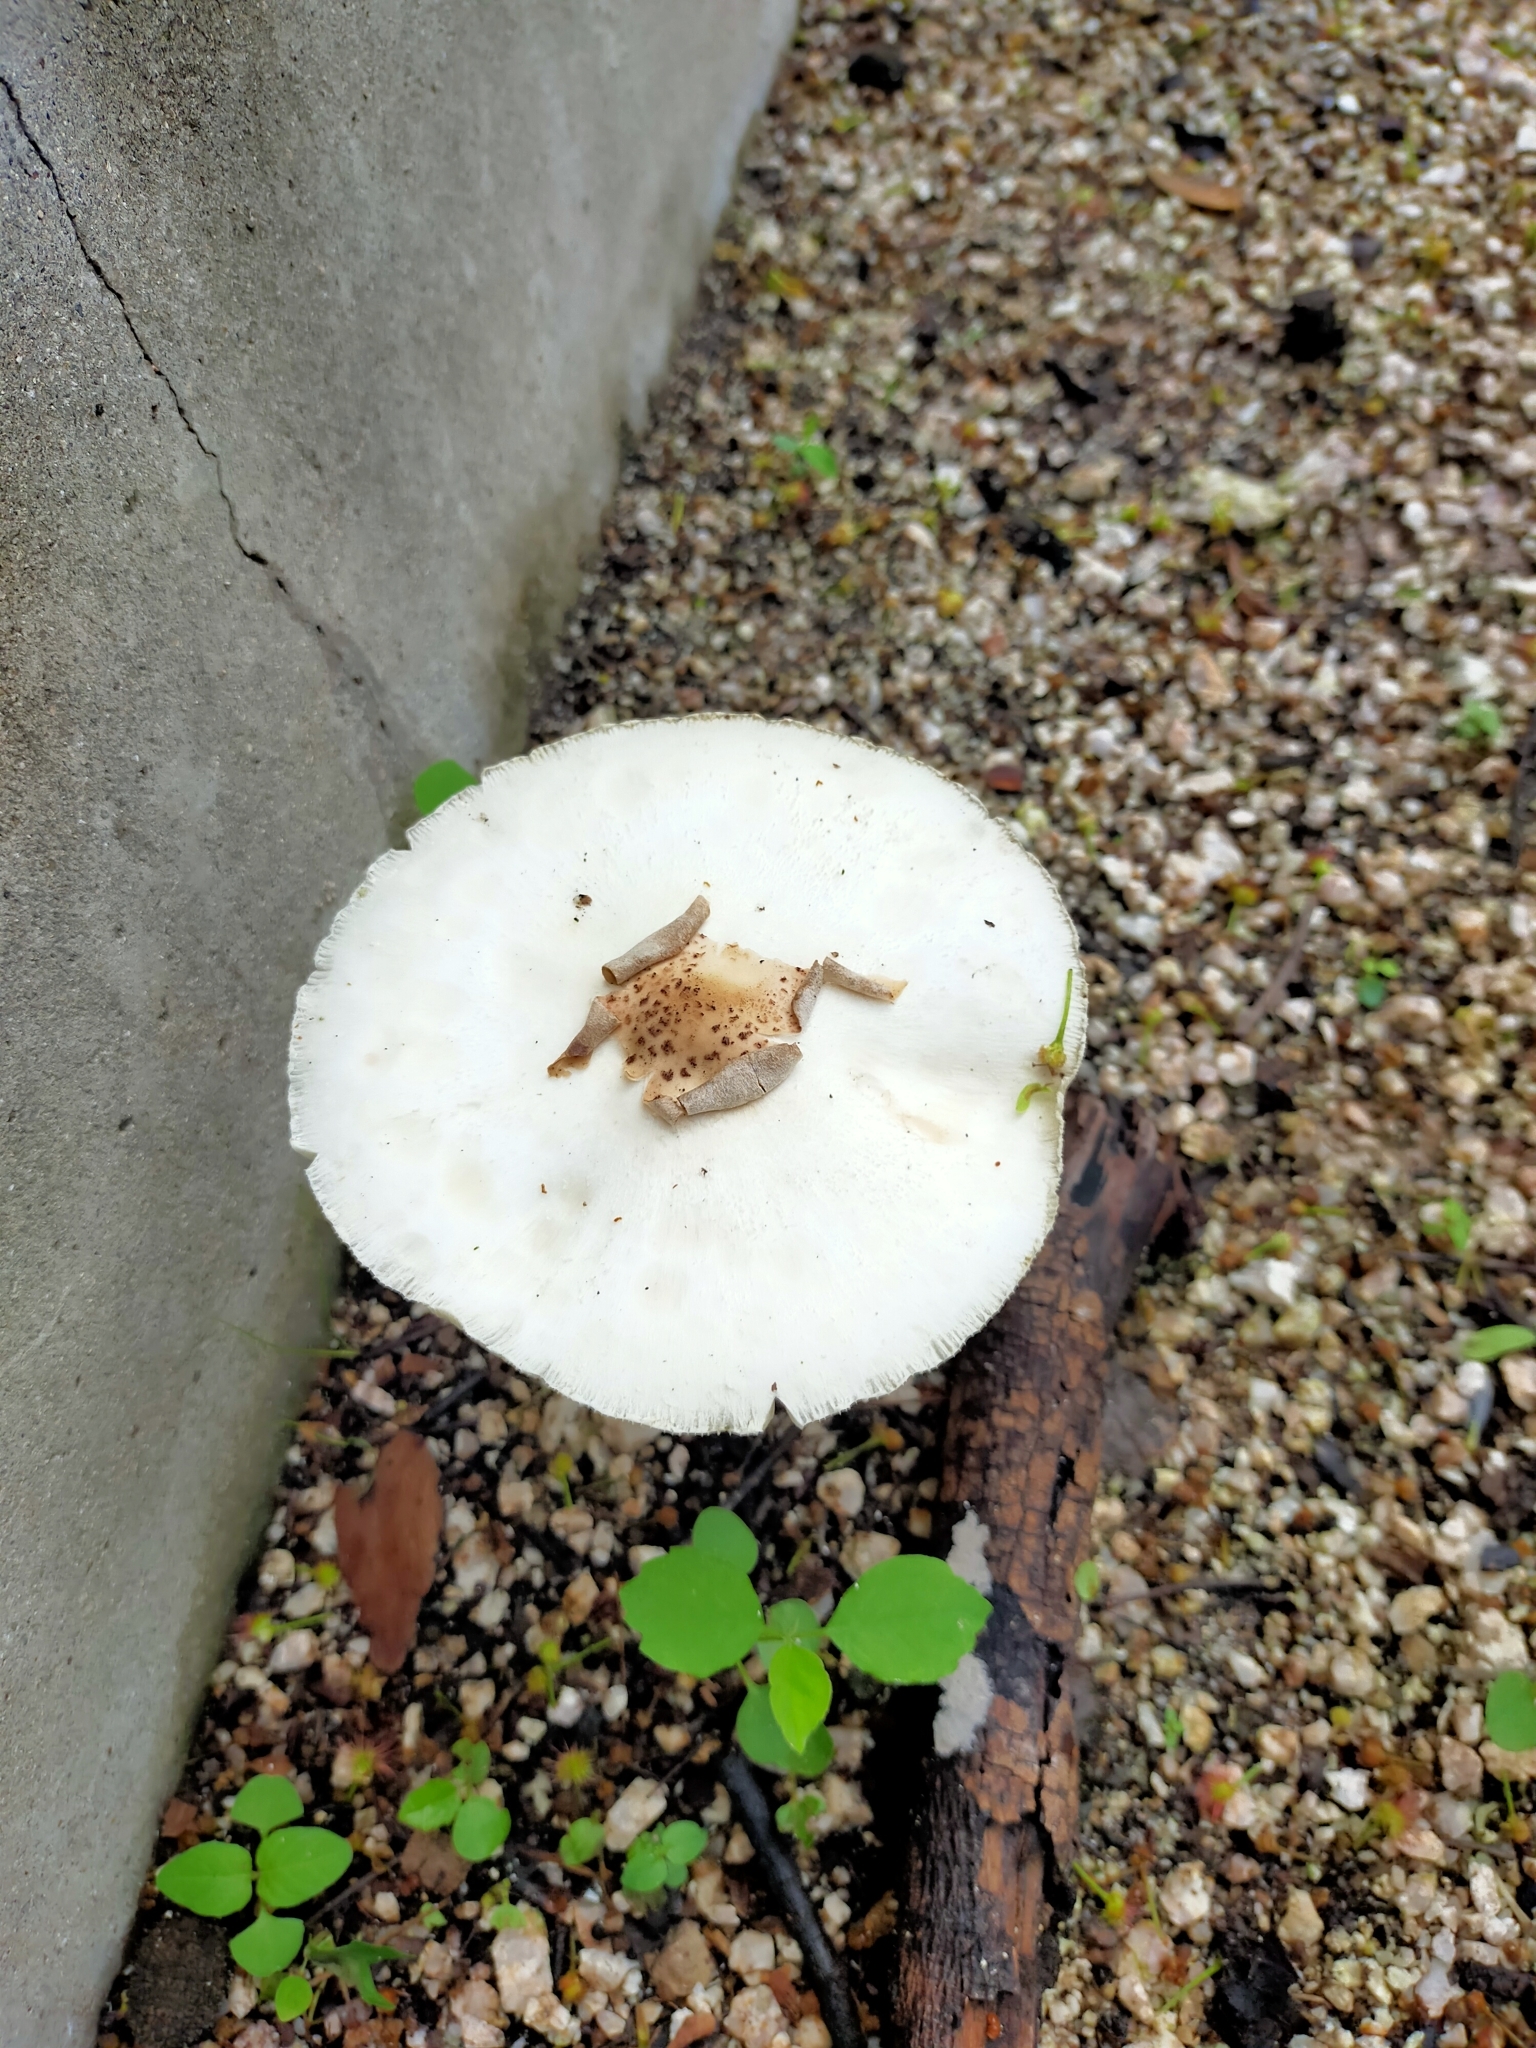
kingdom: Fungi
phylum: Basidiomycota
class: Agaricomycetes
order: Agaricales
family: Agaricaceae
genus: Chlorophyllum
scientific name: Chlorophyllum molybdites
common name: False parasol
